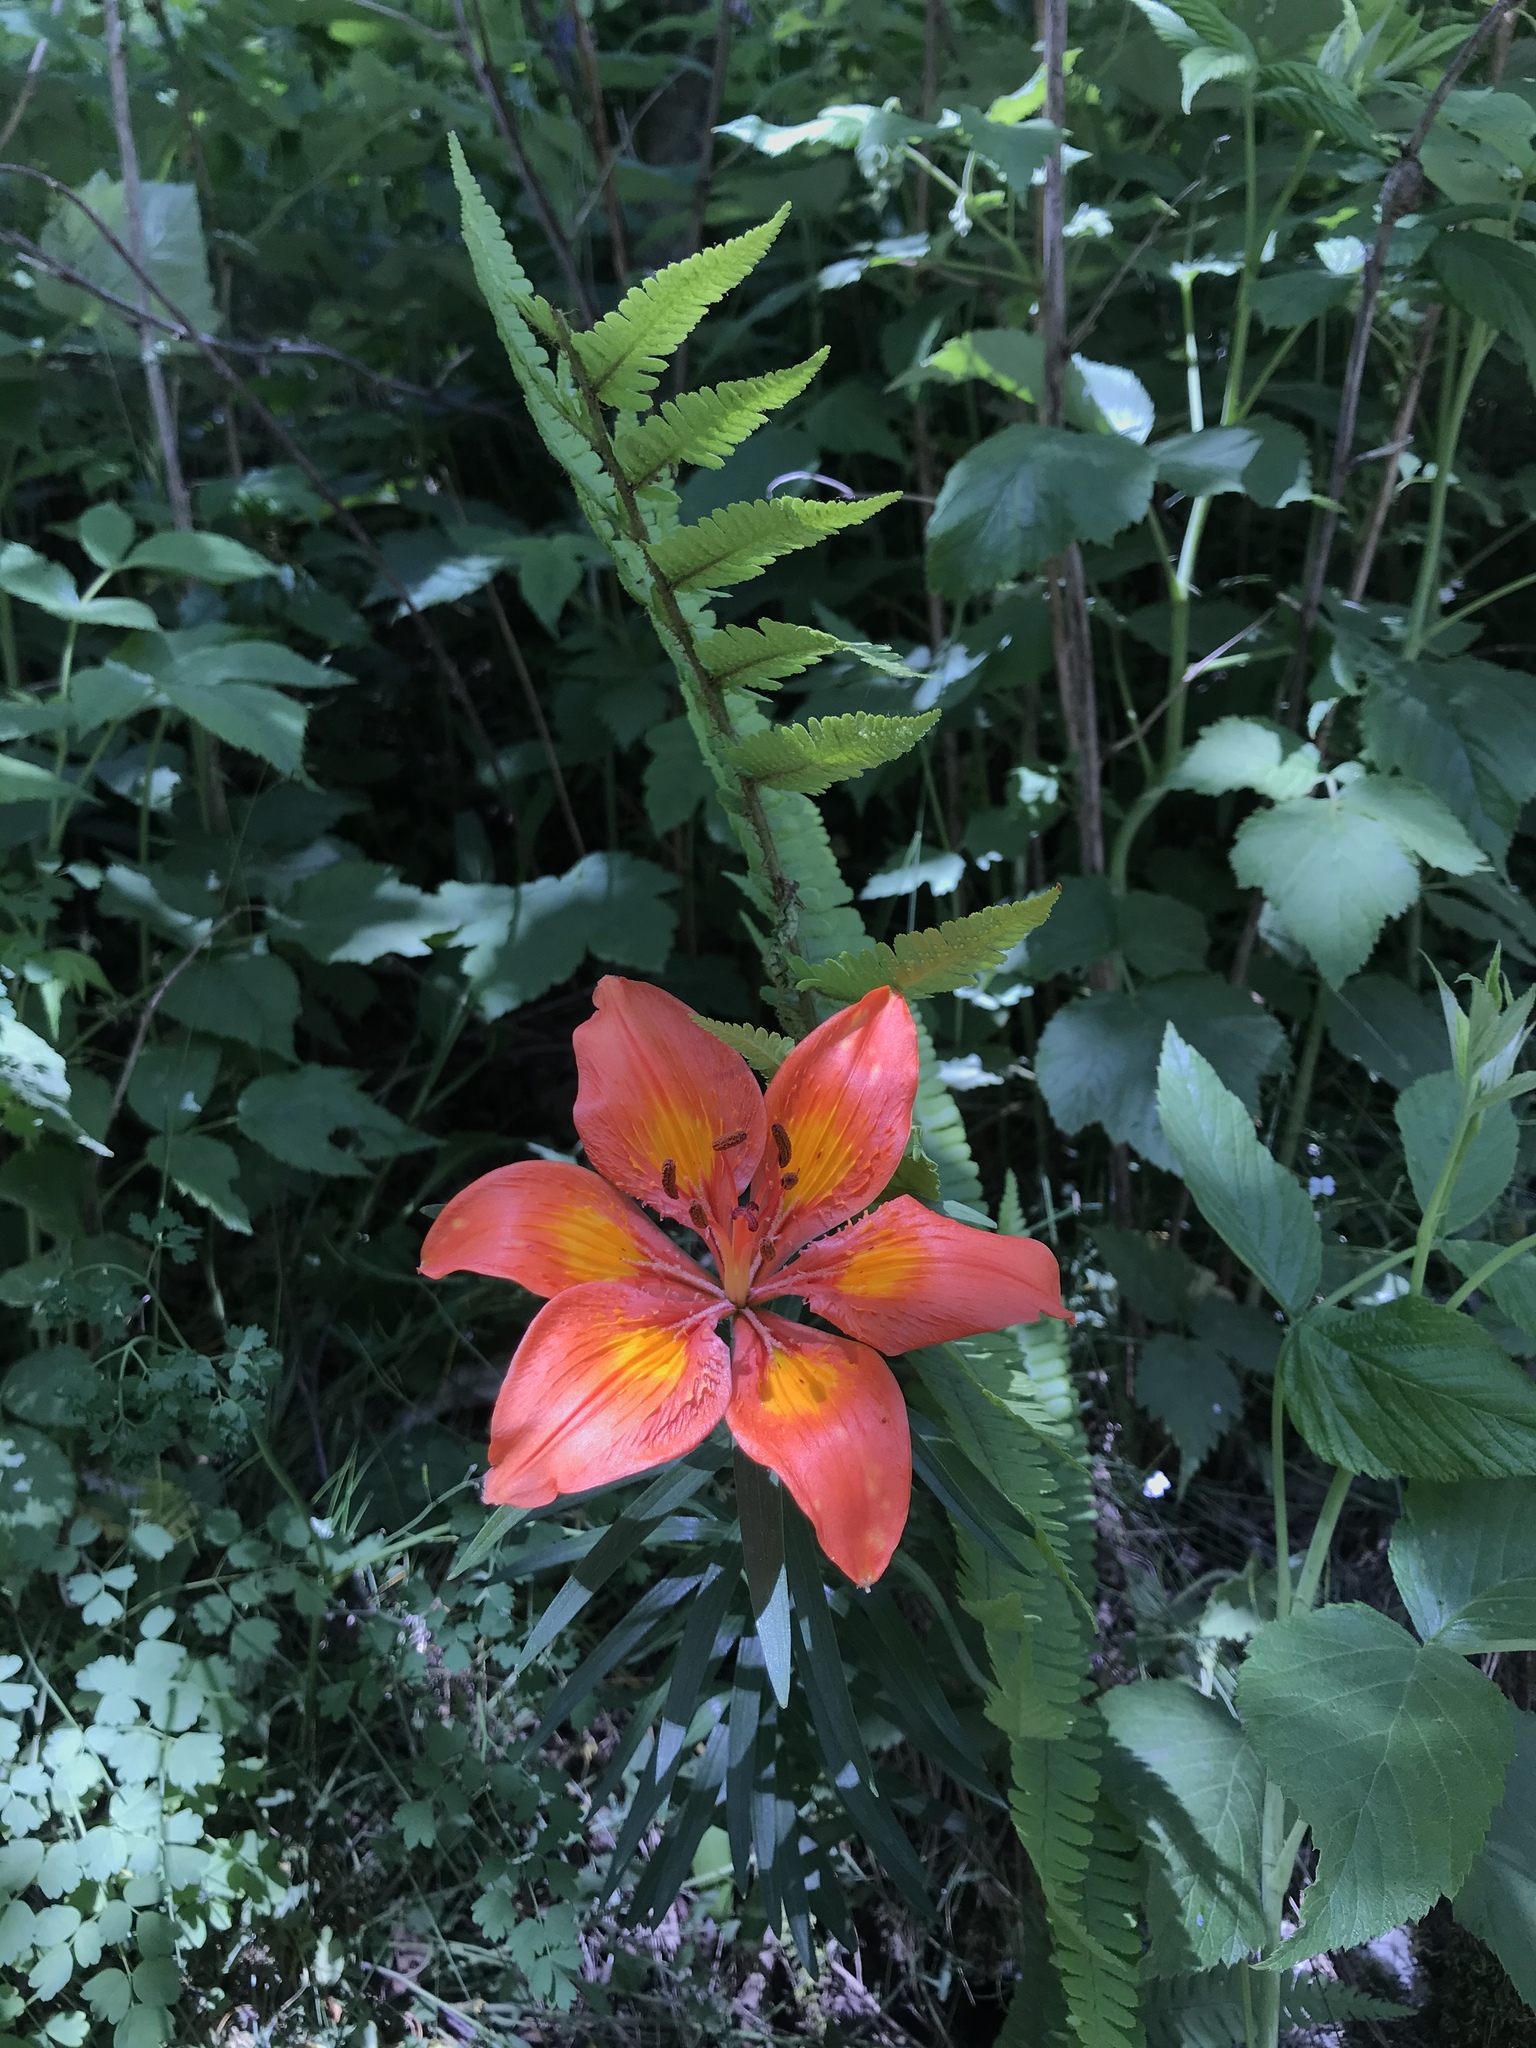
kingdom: Plantae
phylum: Tracheophyta
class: Liliopsida
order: Liliales
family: Liliaceae
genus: Lilium
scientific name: Lilium bulbiferum
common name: Orange lily
